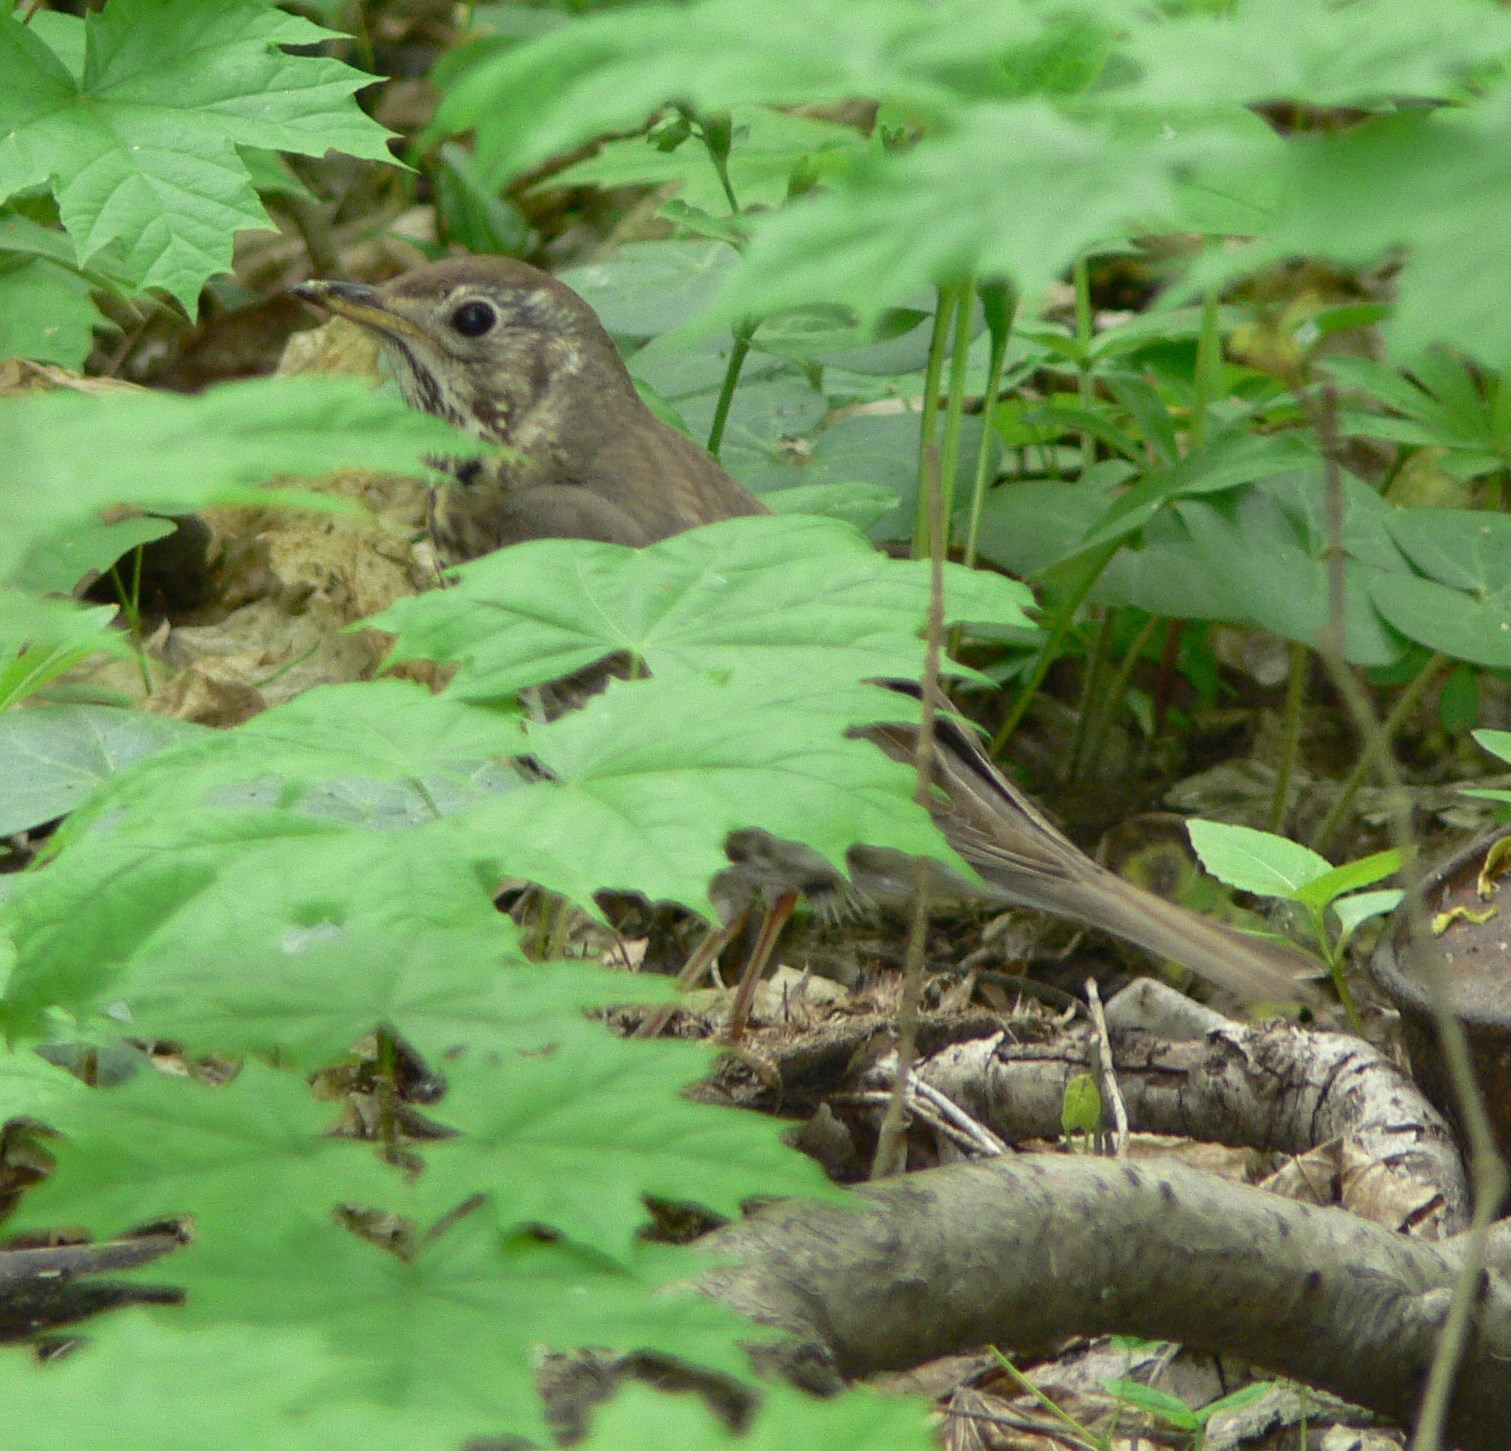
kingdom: Animalia
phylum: Chordata
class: Aves
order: Passeriformes
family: Turdidae
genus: Turdus
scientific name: Turdus philomelos
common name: Song thrush
